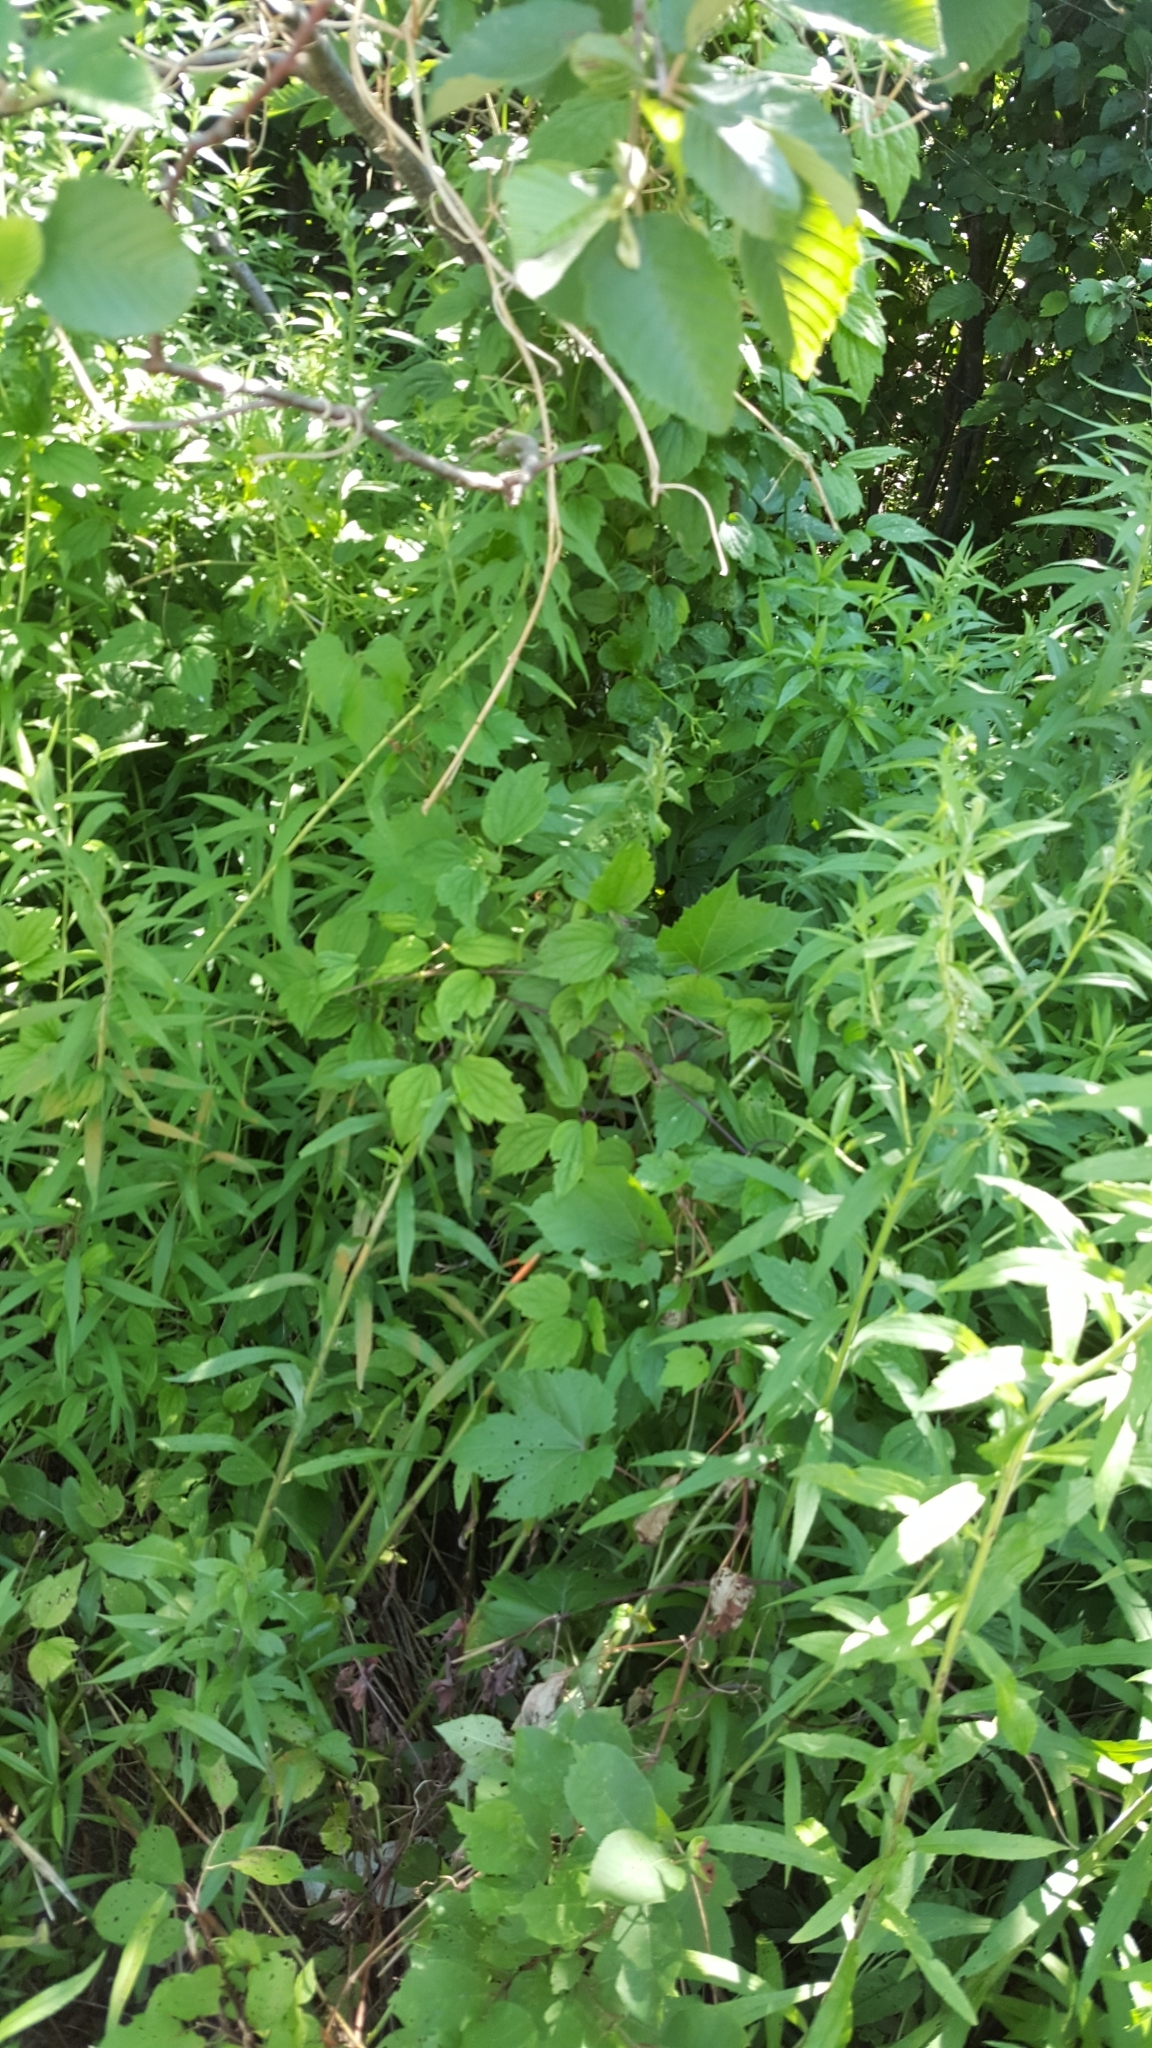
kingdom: Plantae
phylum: Tracheophyta
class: Magnoliopsida
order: Ranunculales
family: Ranunculaceae
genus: Clematis
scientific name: Clematis virginiana
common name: Virgin's-bower
